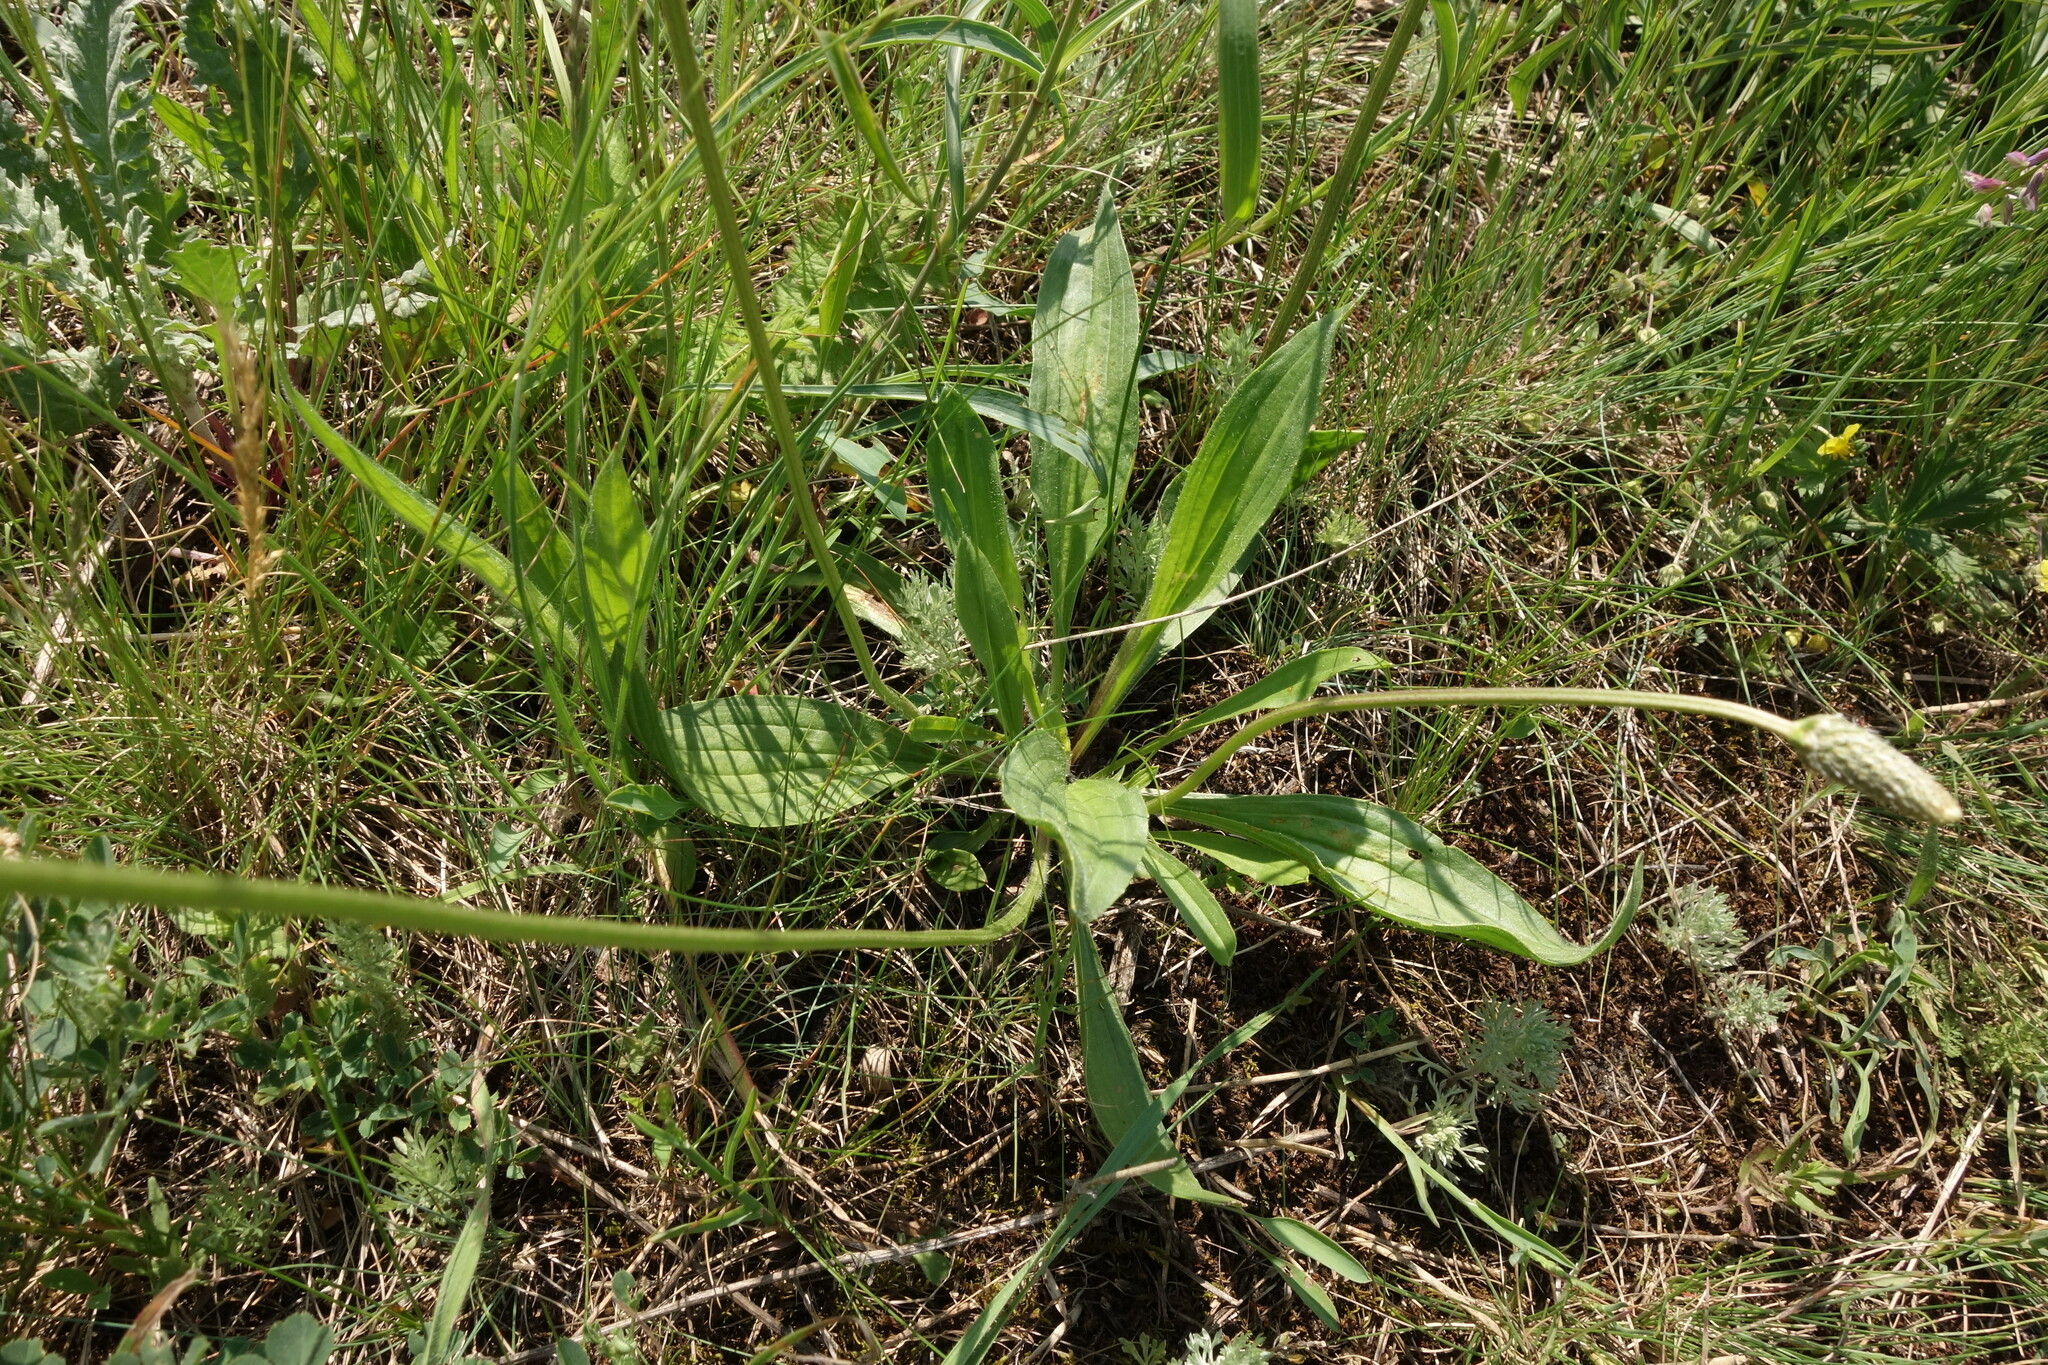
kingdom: Plantae
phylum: Tracheophyta
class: Magnoliopsida
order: Lamiales
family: Plantaginaceae
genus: Plantago
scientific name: Plantago lanceolata
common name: Ribwort plantain
